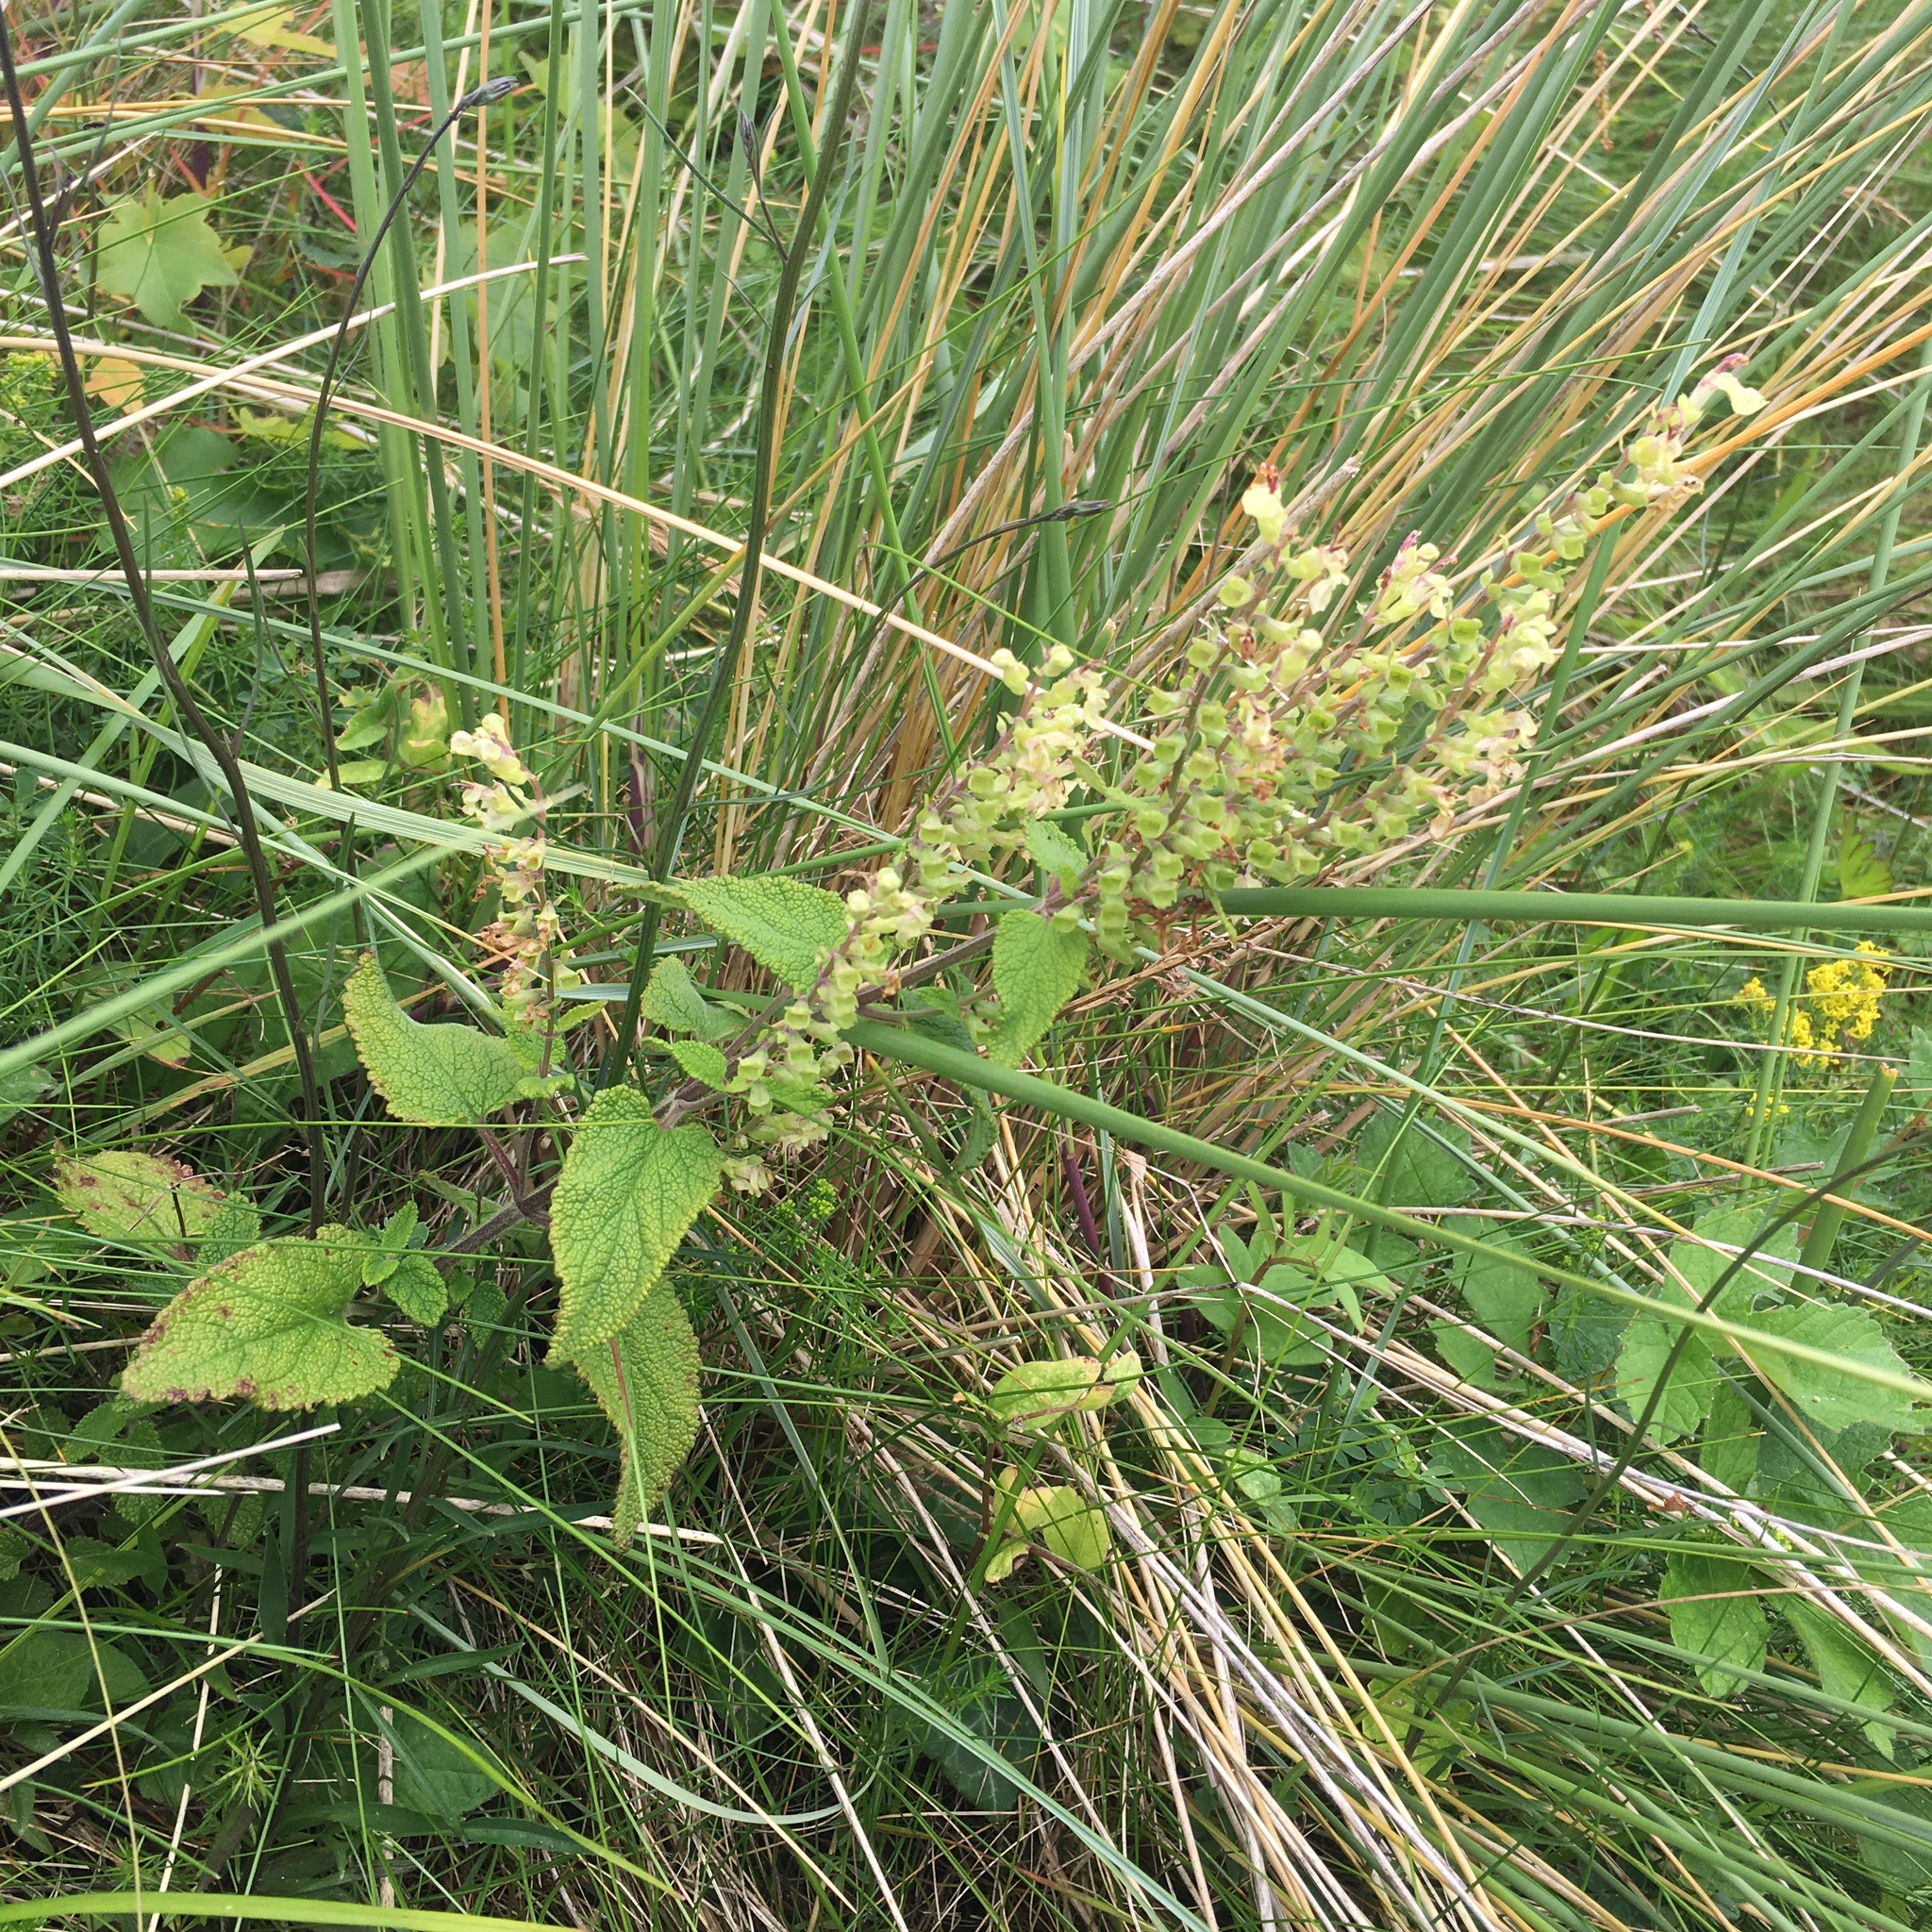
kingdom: Plantae
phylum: Tracheophyta
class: Magnoliopsida
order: Lamiales
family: Lamiaceae
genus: Teucrium
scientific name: Teucrium scorodonia
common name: Woodland germander
